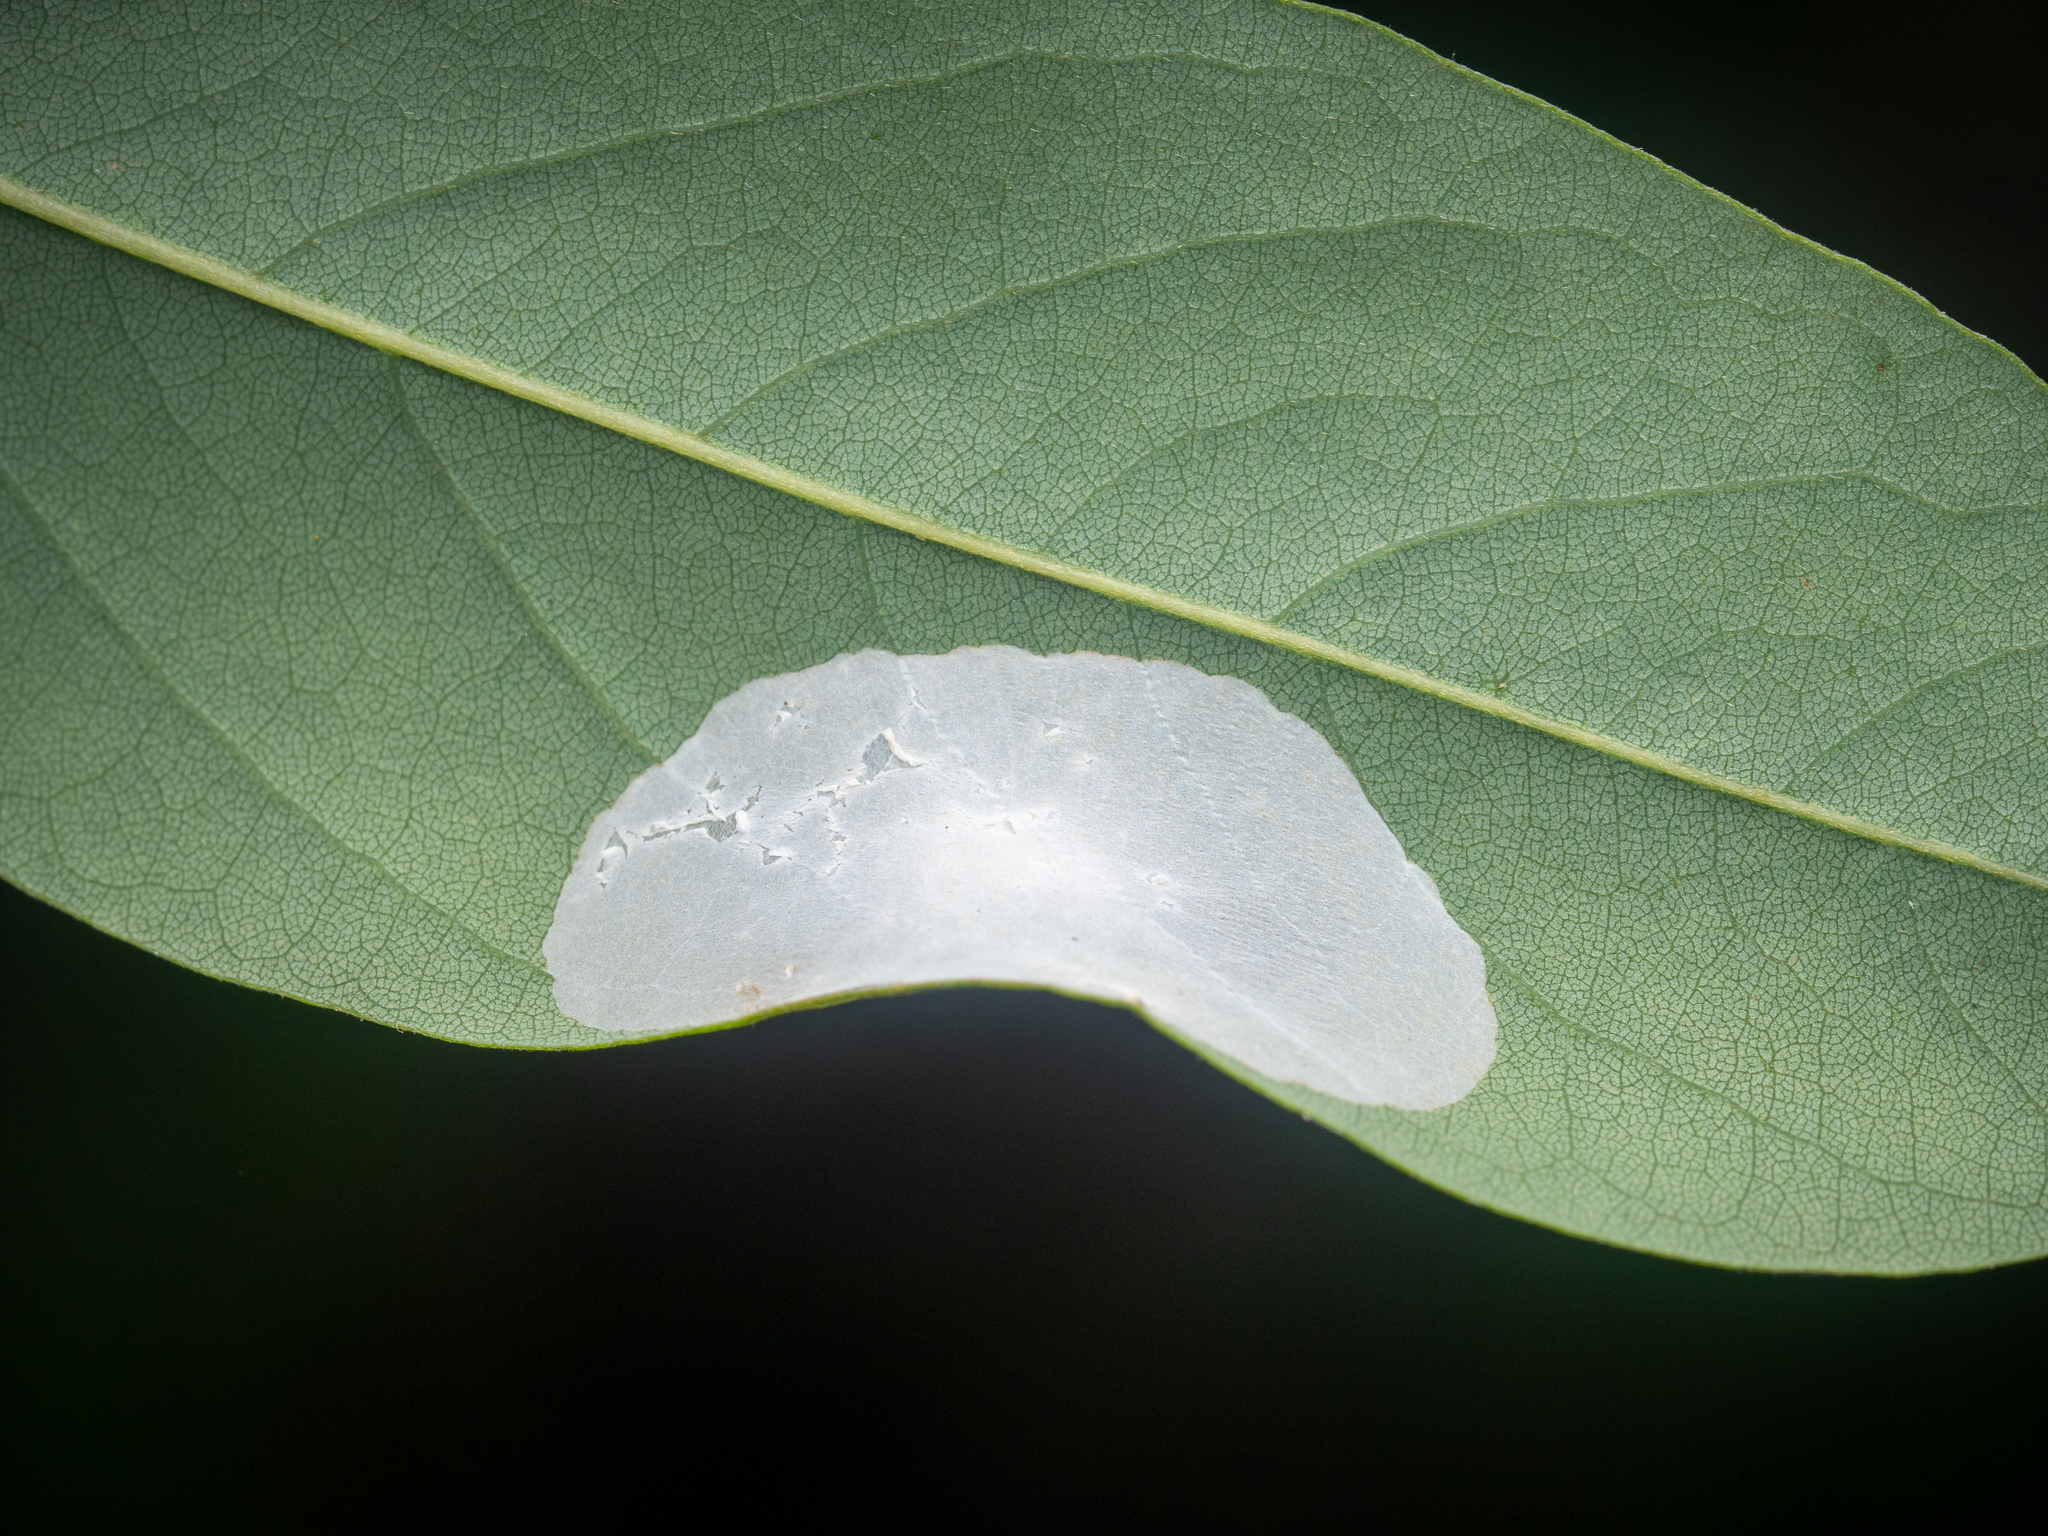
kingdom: Animalia
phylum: Arthropoda
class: Insecta
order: Lepidoptera
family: Gracillariidae
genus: Macrosaccus
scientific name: Macrosaccus robiniella
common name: Leaf blotch miner moth
